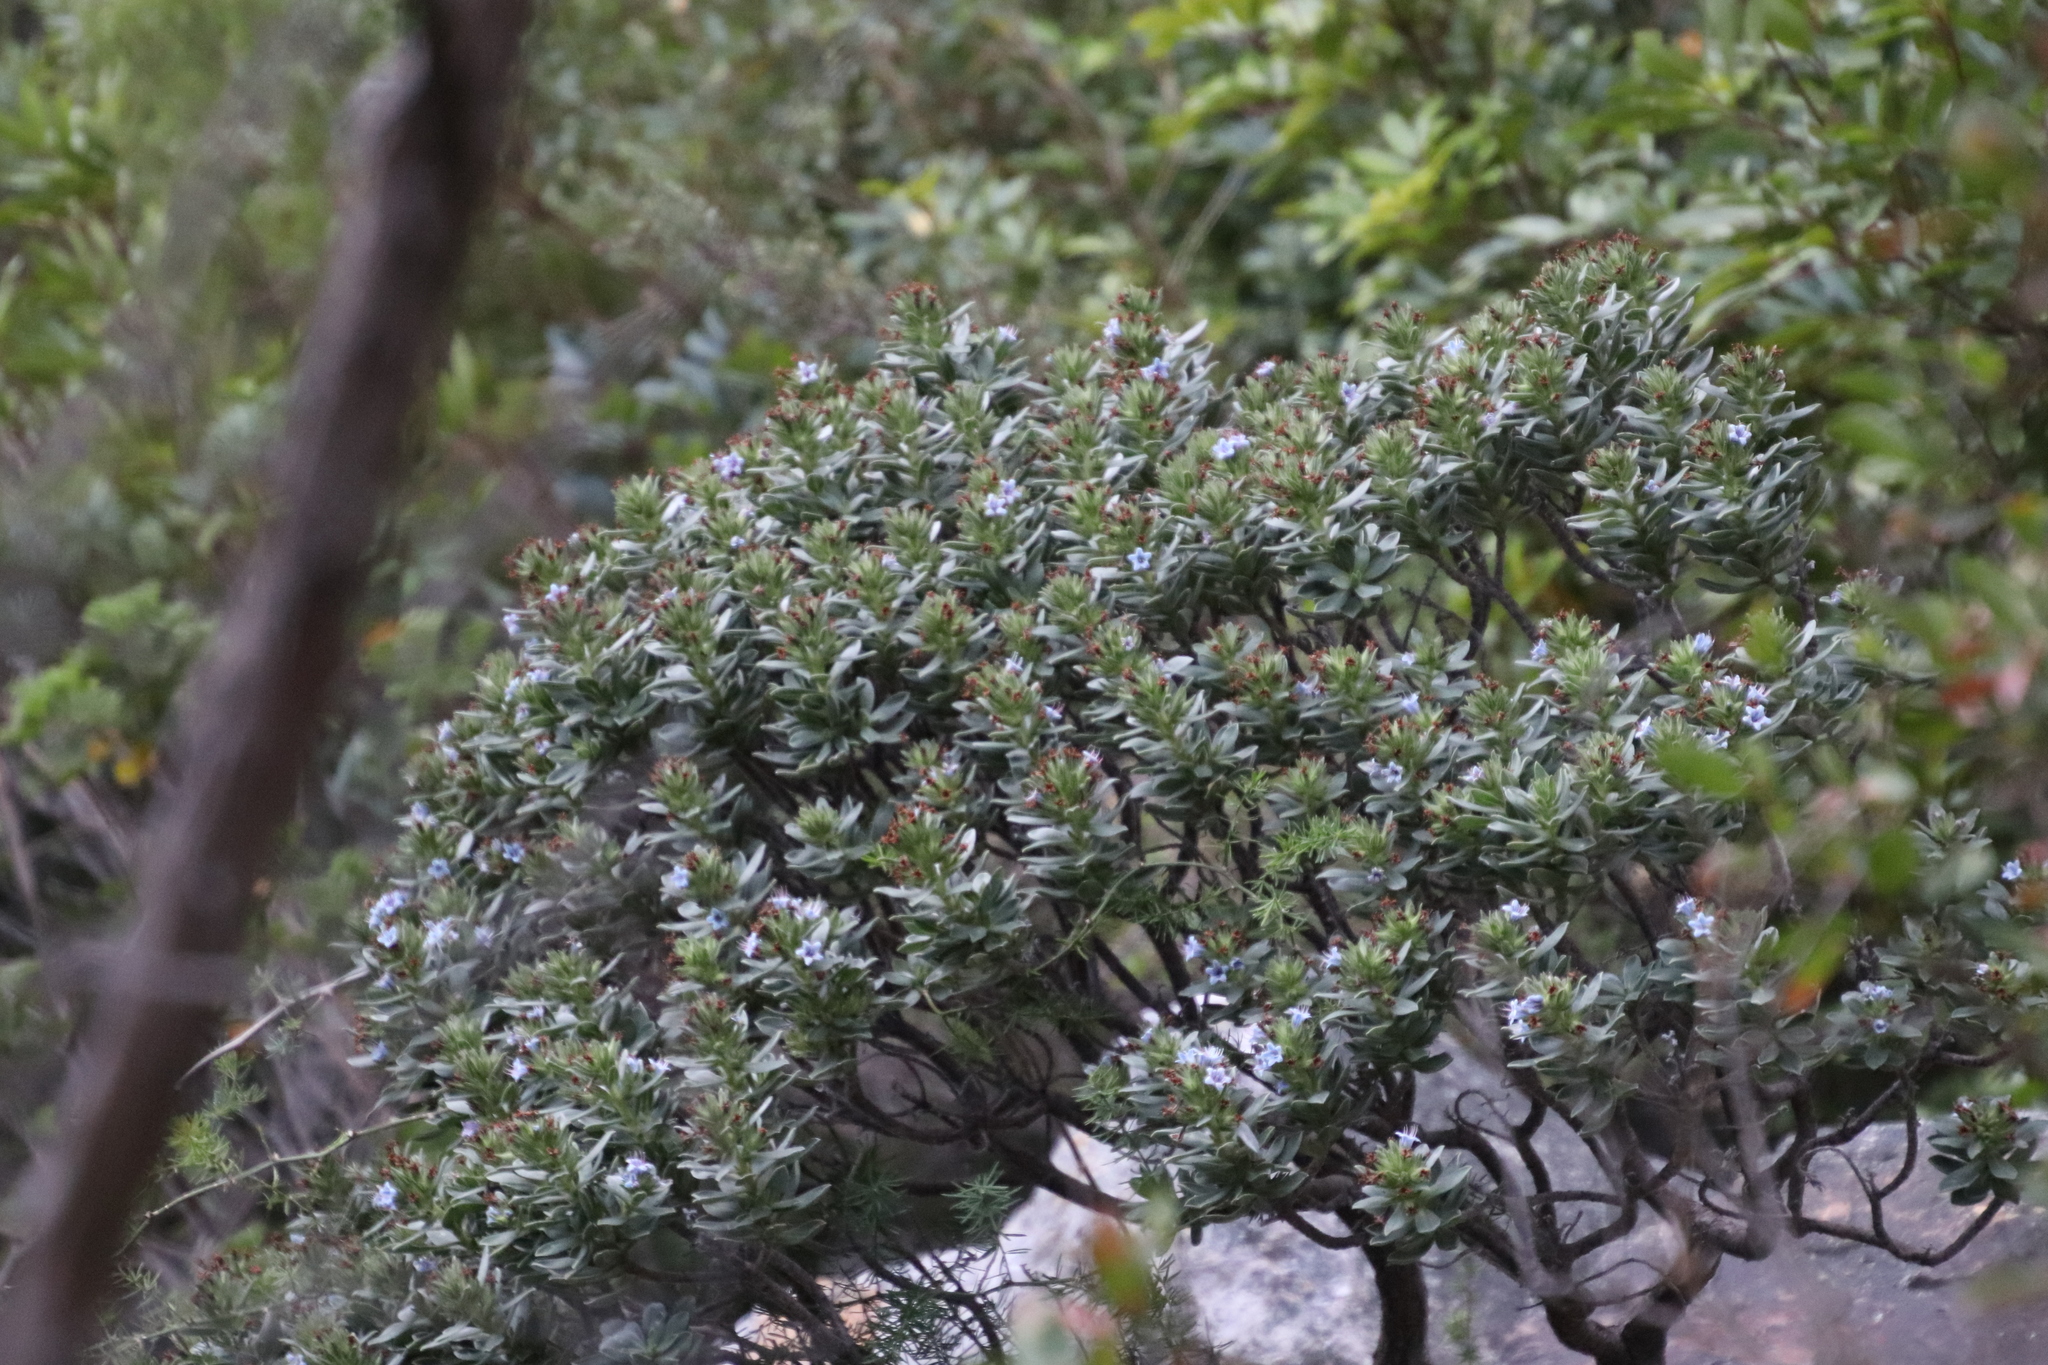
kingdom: Plantae
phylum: Tracheophyta
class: Magnoliopsida
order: Boraginales
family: Boraginaceae
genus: Lobostemon
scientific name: Lobostemon montanus
